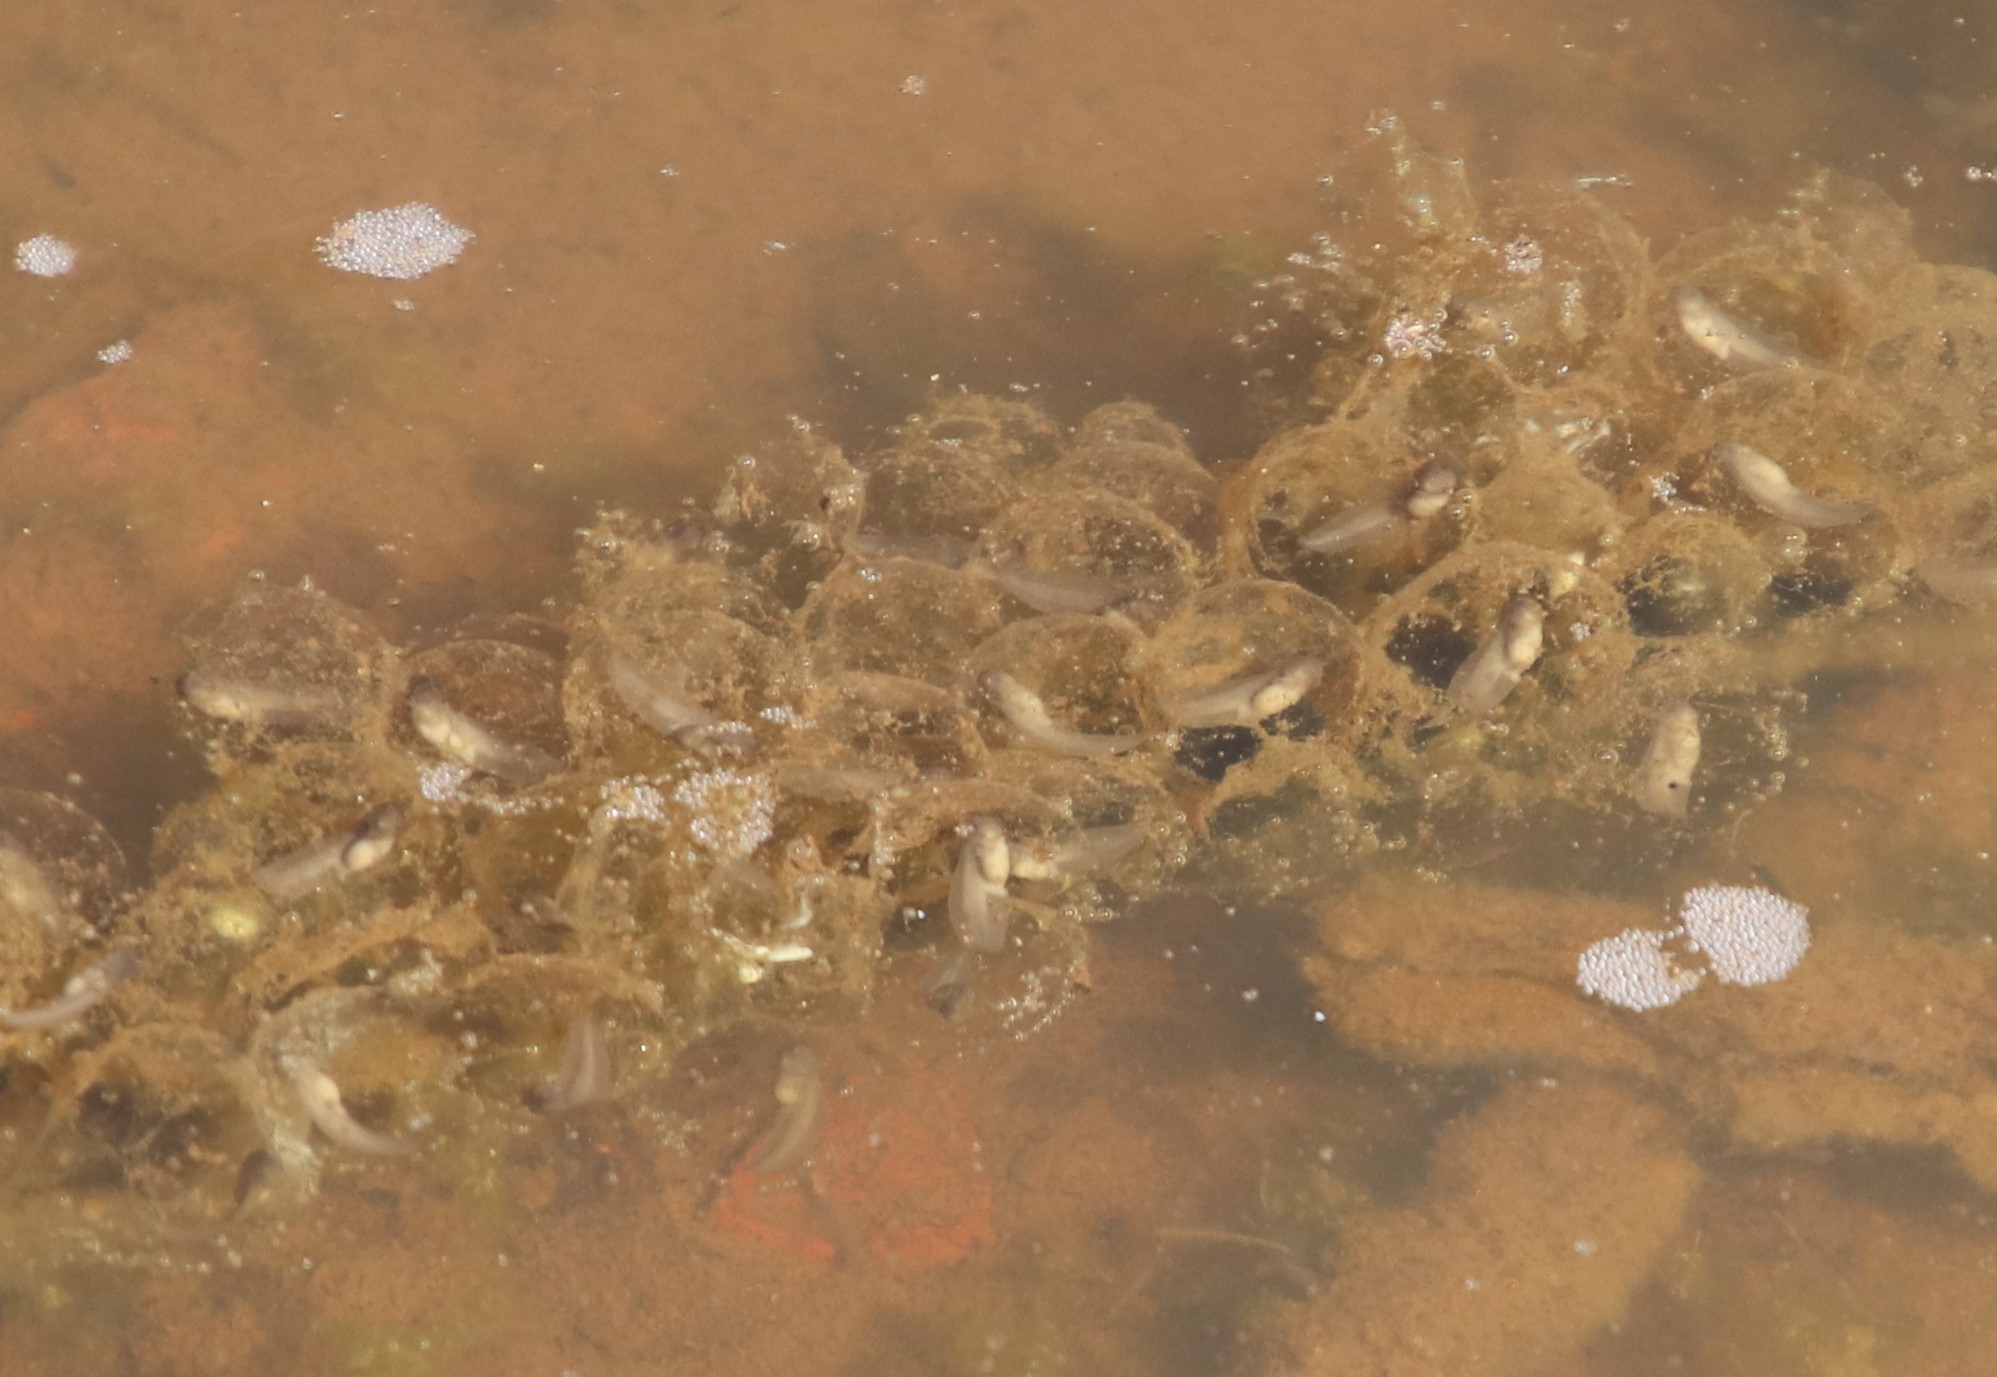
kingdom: Animalia
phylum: Chordata
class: Amphibia
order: Anura
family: Scaphiopodidae
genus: Spea
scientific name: Spea hammondii
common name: Western spadefoot toad
